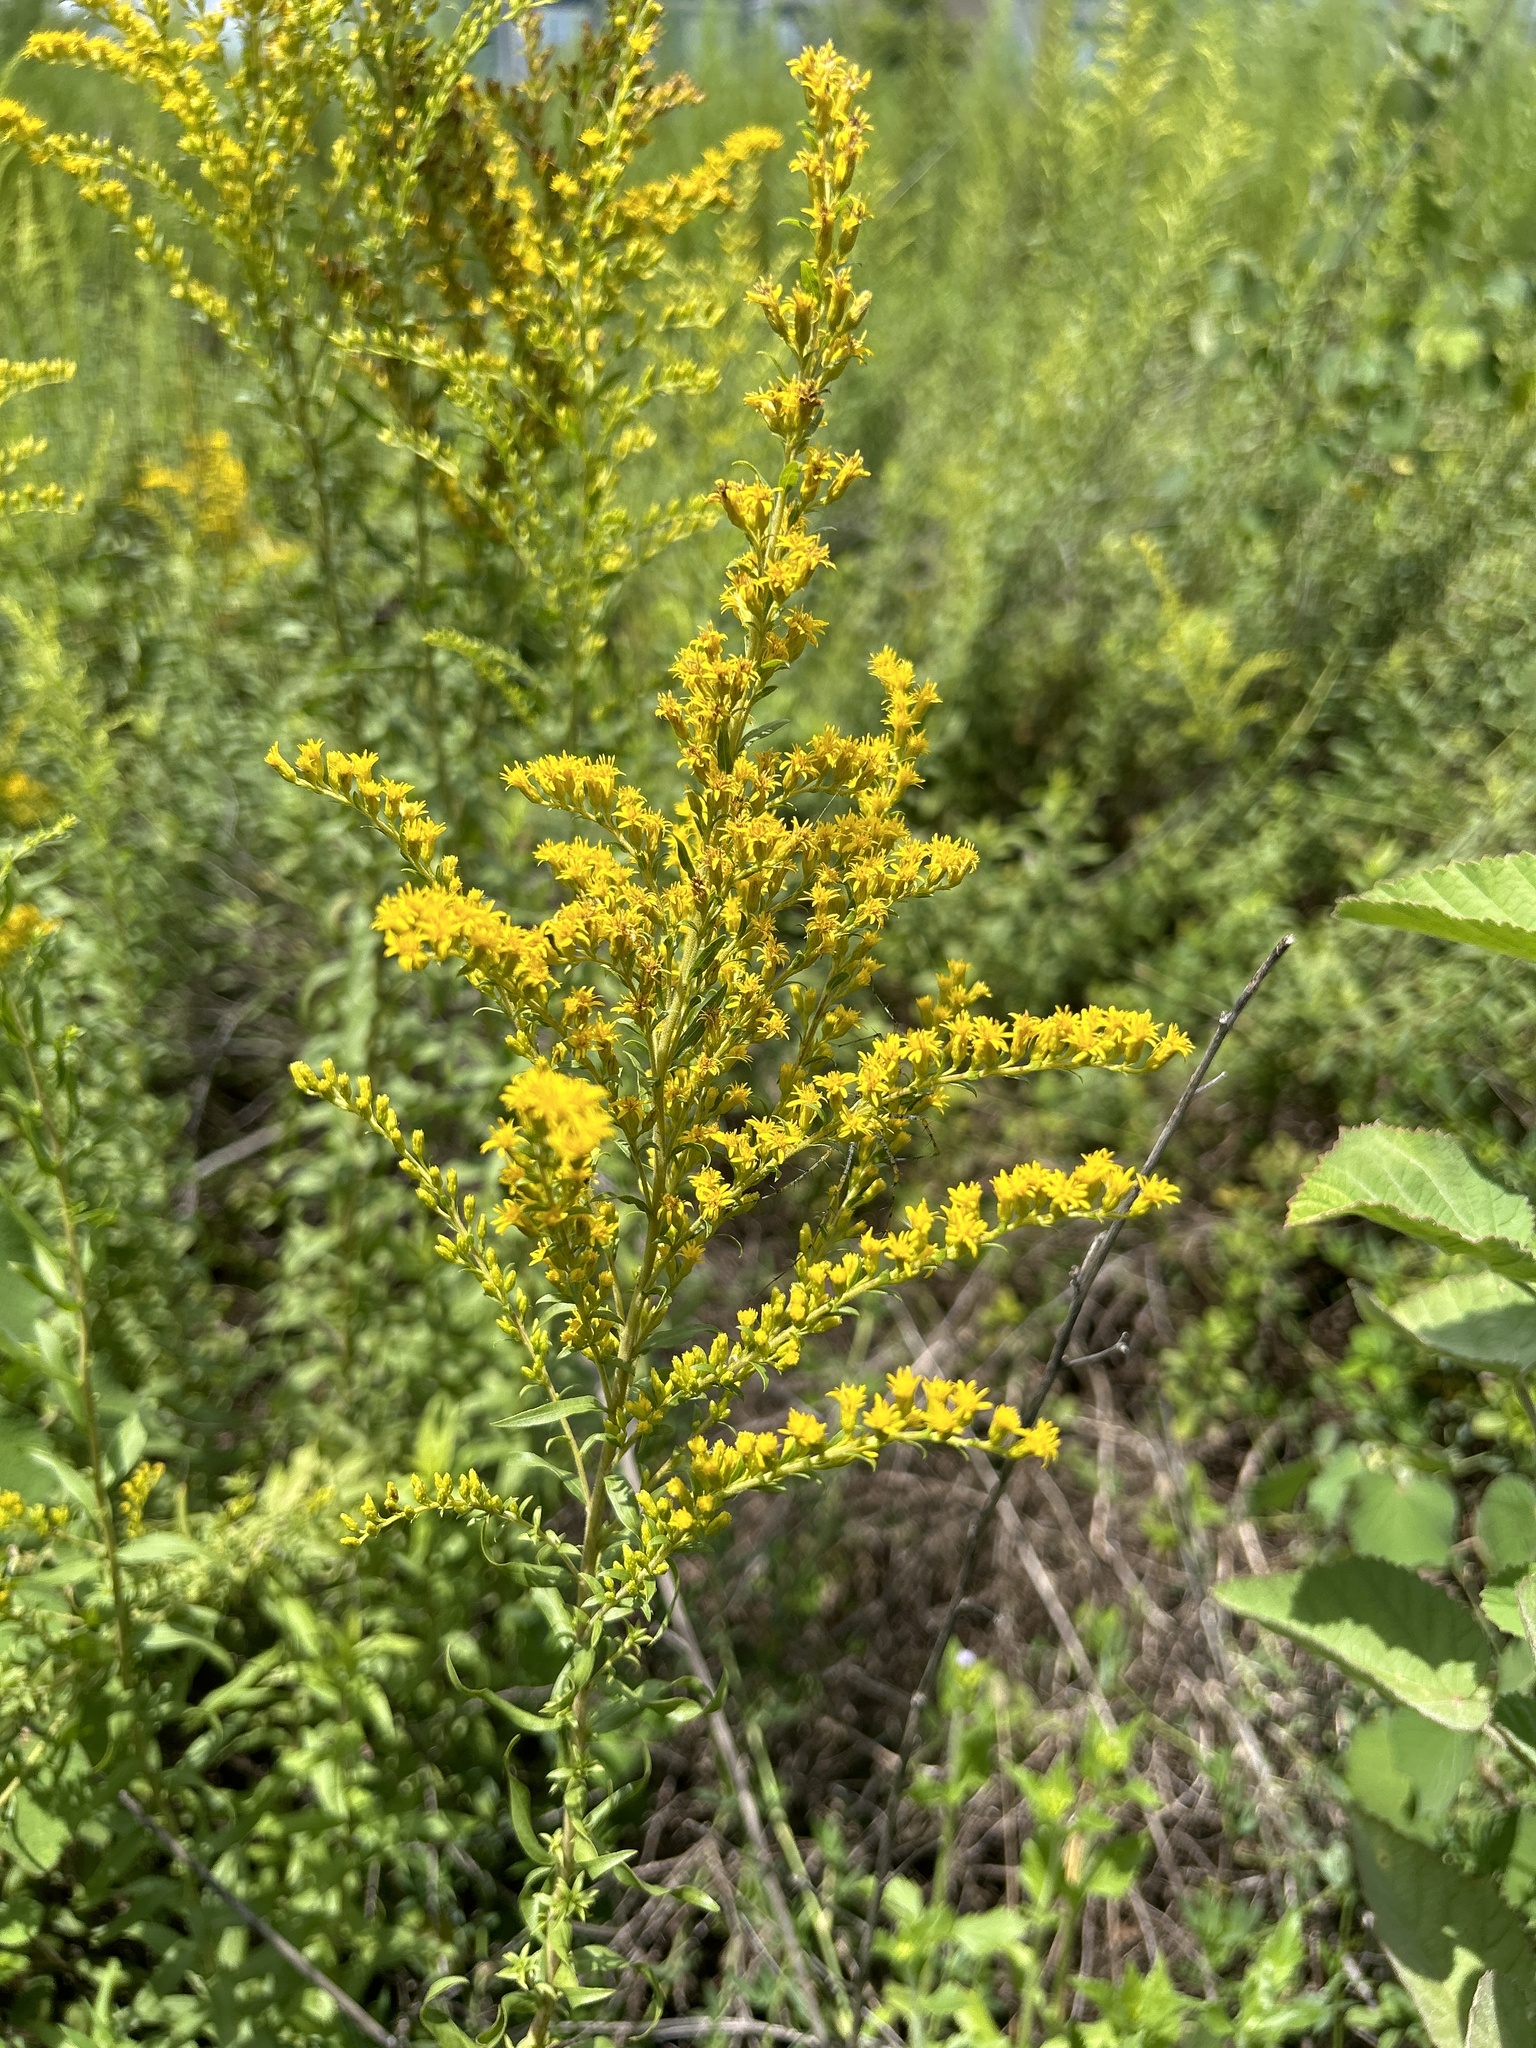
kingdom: Plantae
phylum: Tracheophyta
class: Magnoliopsida
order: Asterales
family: Asteraceae
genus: Solidago
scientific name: Solidago chapmanii
